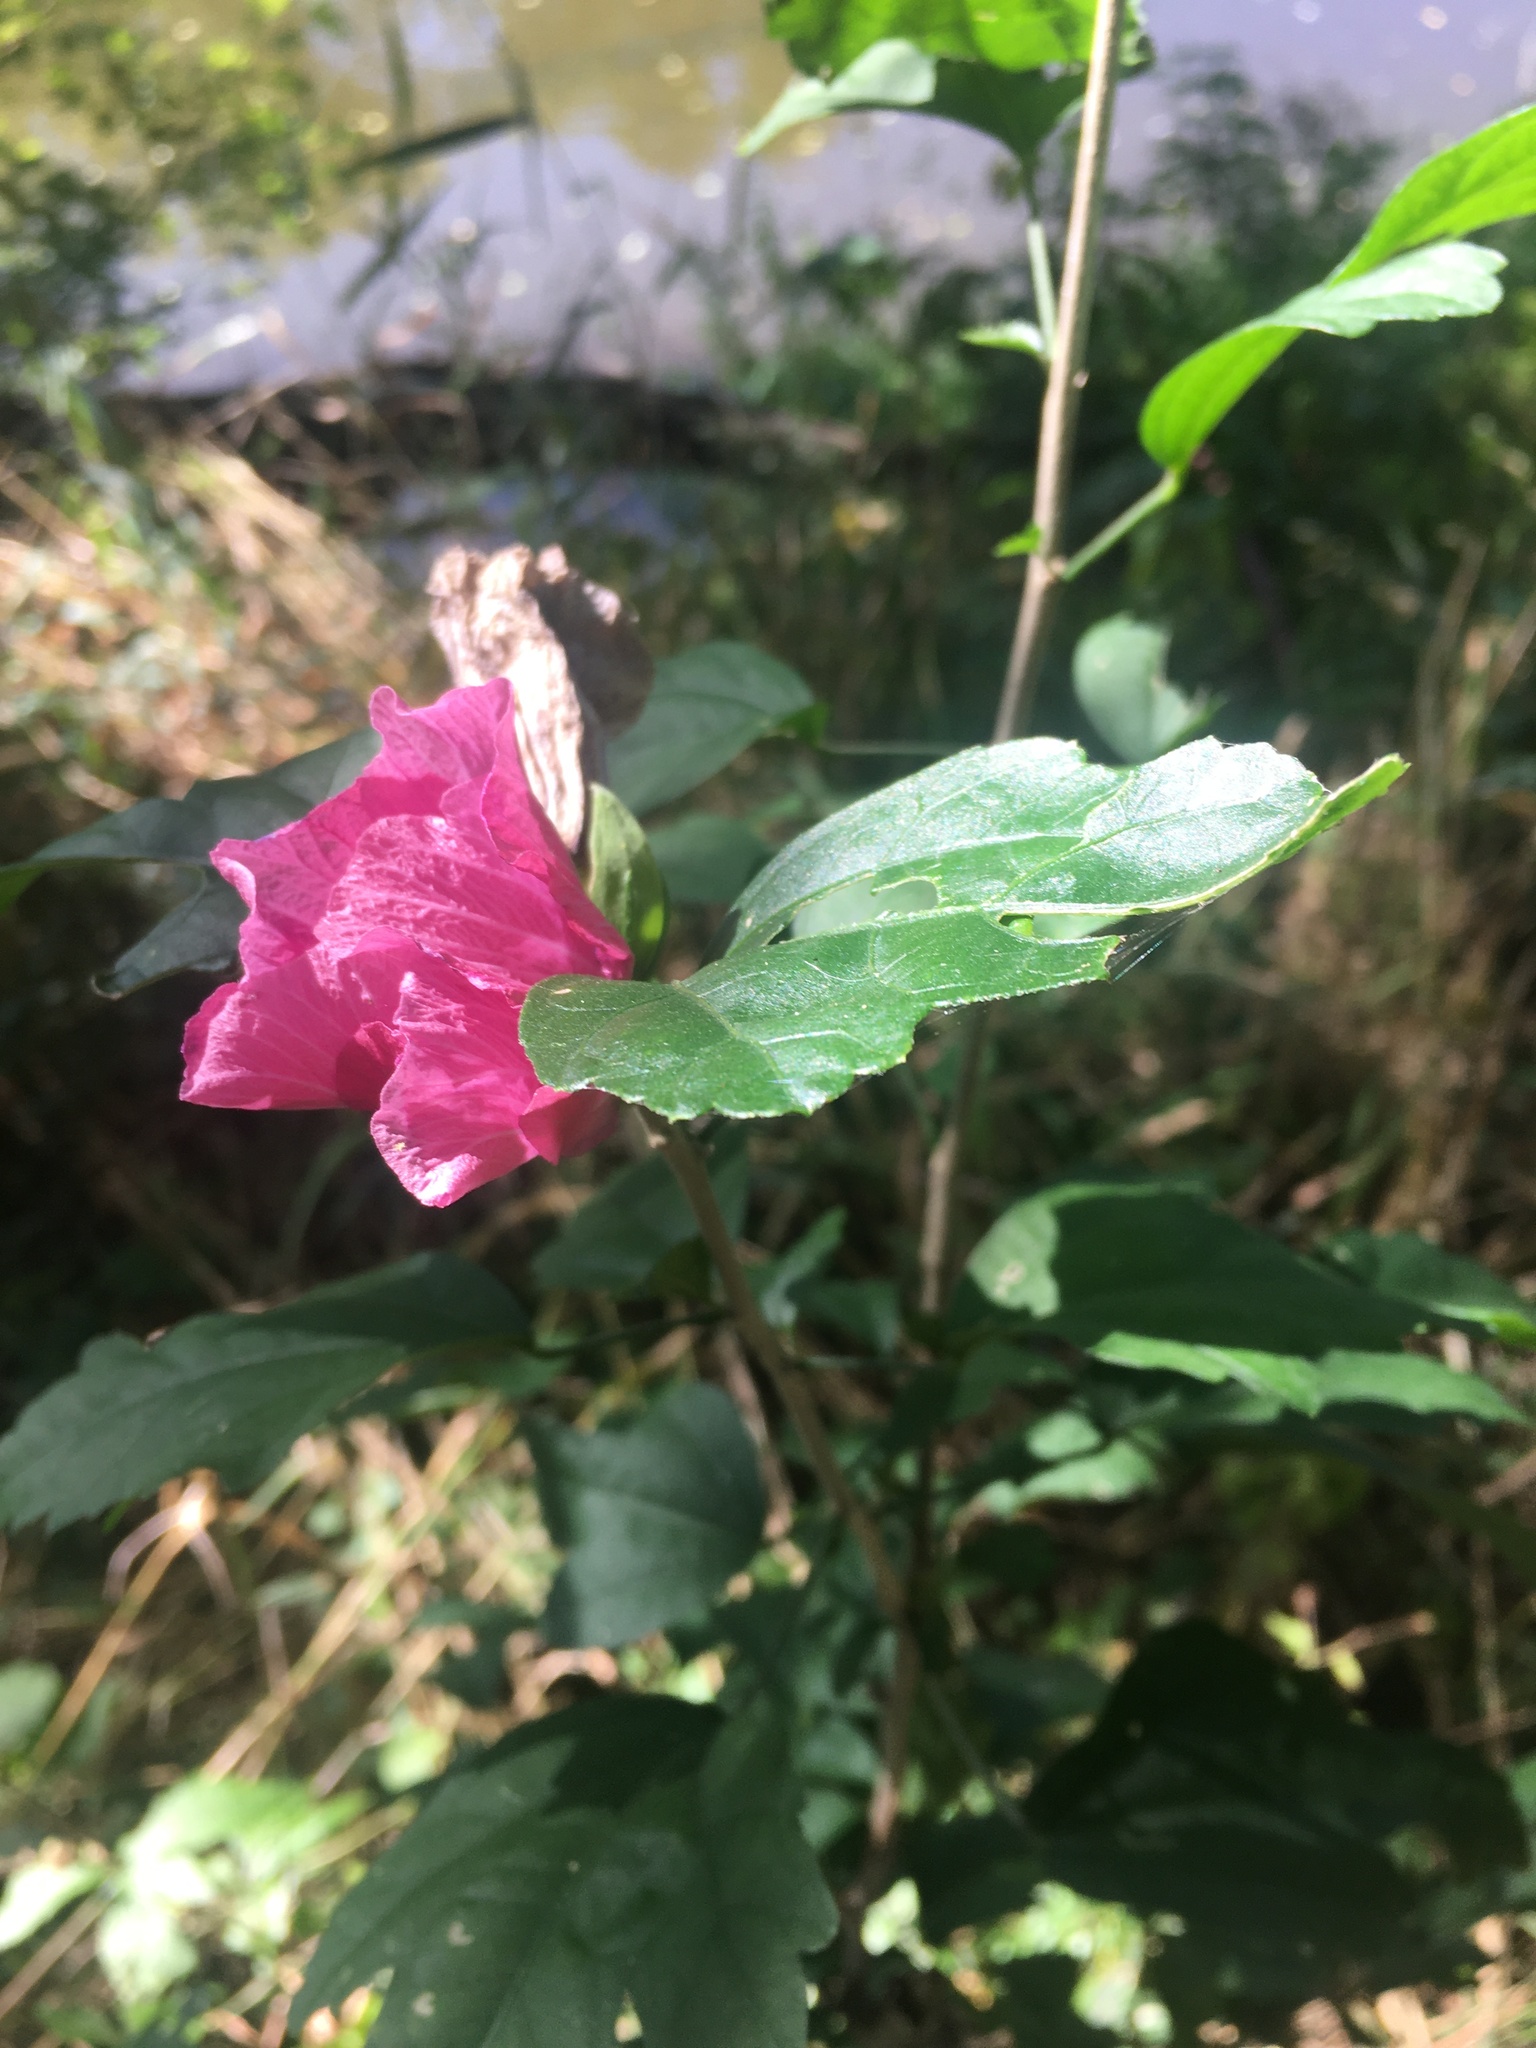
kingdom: Plantae
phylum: Tracheophyta
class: Magnoliopsida
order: Malvales
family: Malvaceae
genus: Hibiscus
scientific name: Hibiscus syriacus
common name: Syrian ketmia
